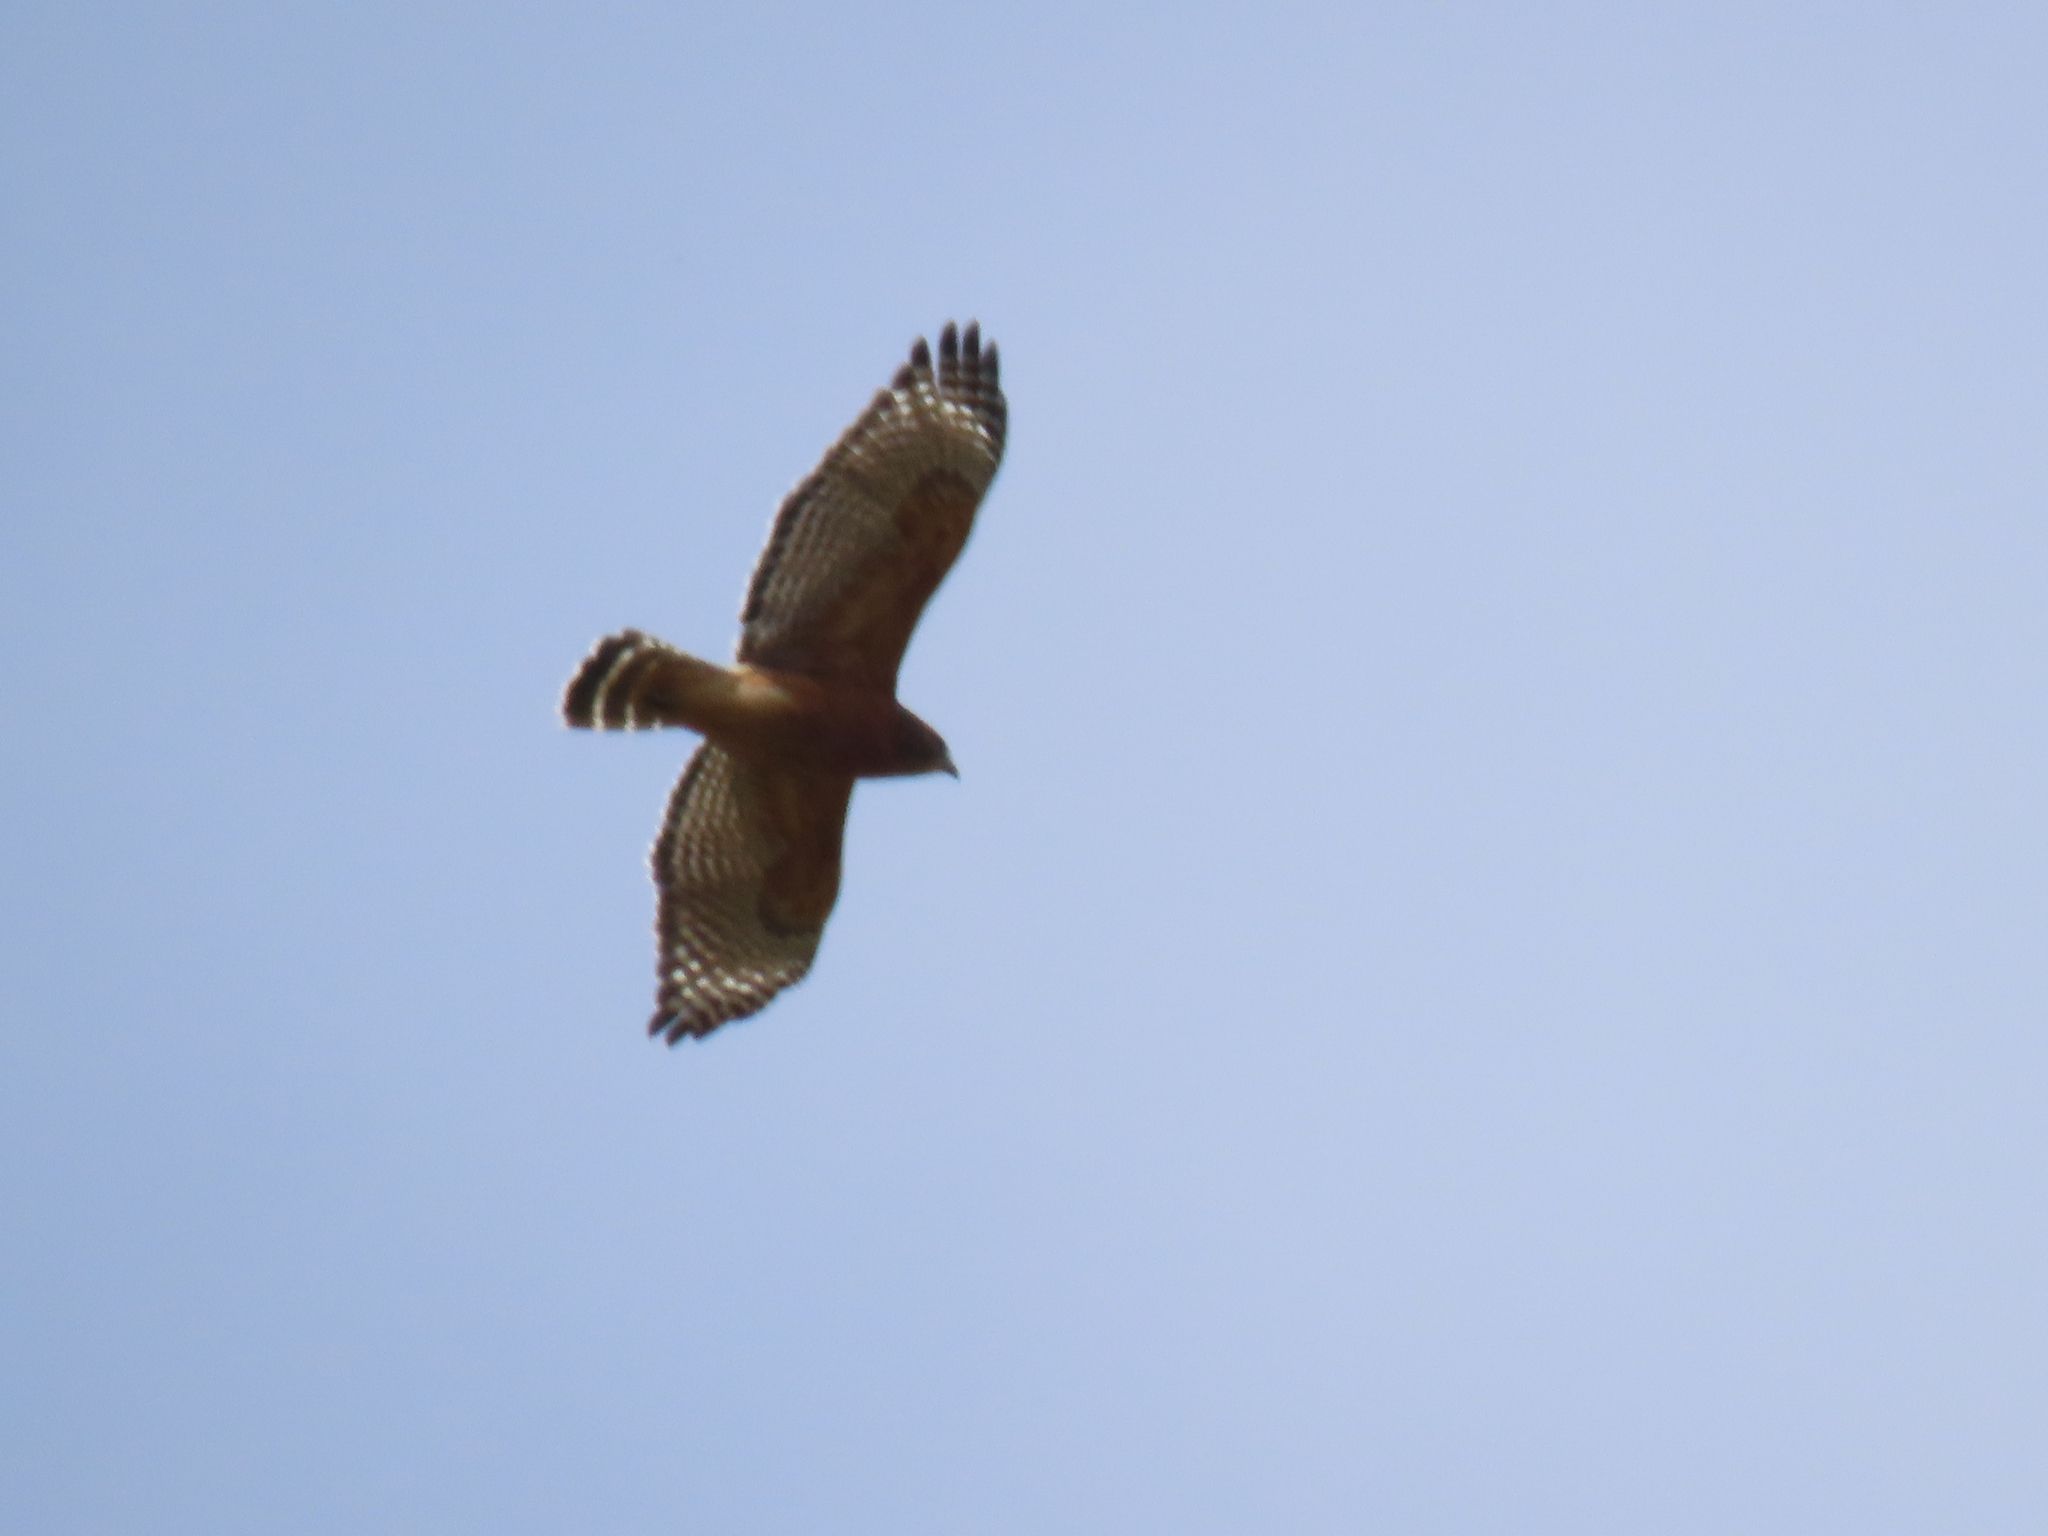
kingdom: Animalia
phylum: Chordata
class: Aves
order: Accipitriformes
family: Accipitridae
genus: Buteo
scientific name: Buteo lineatus
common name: Red-shouldered hawk
